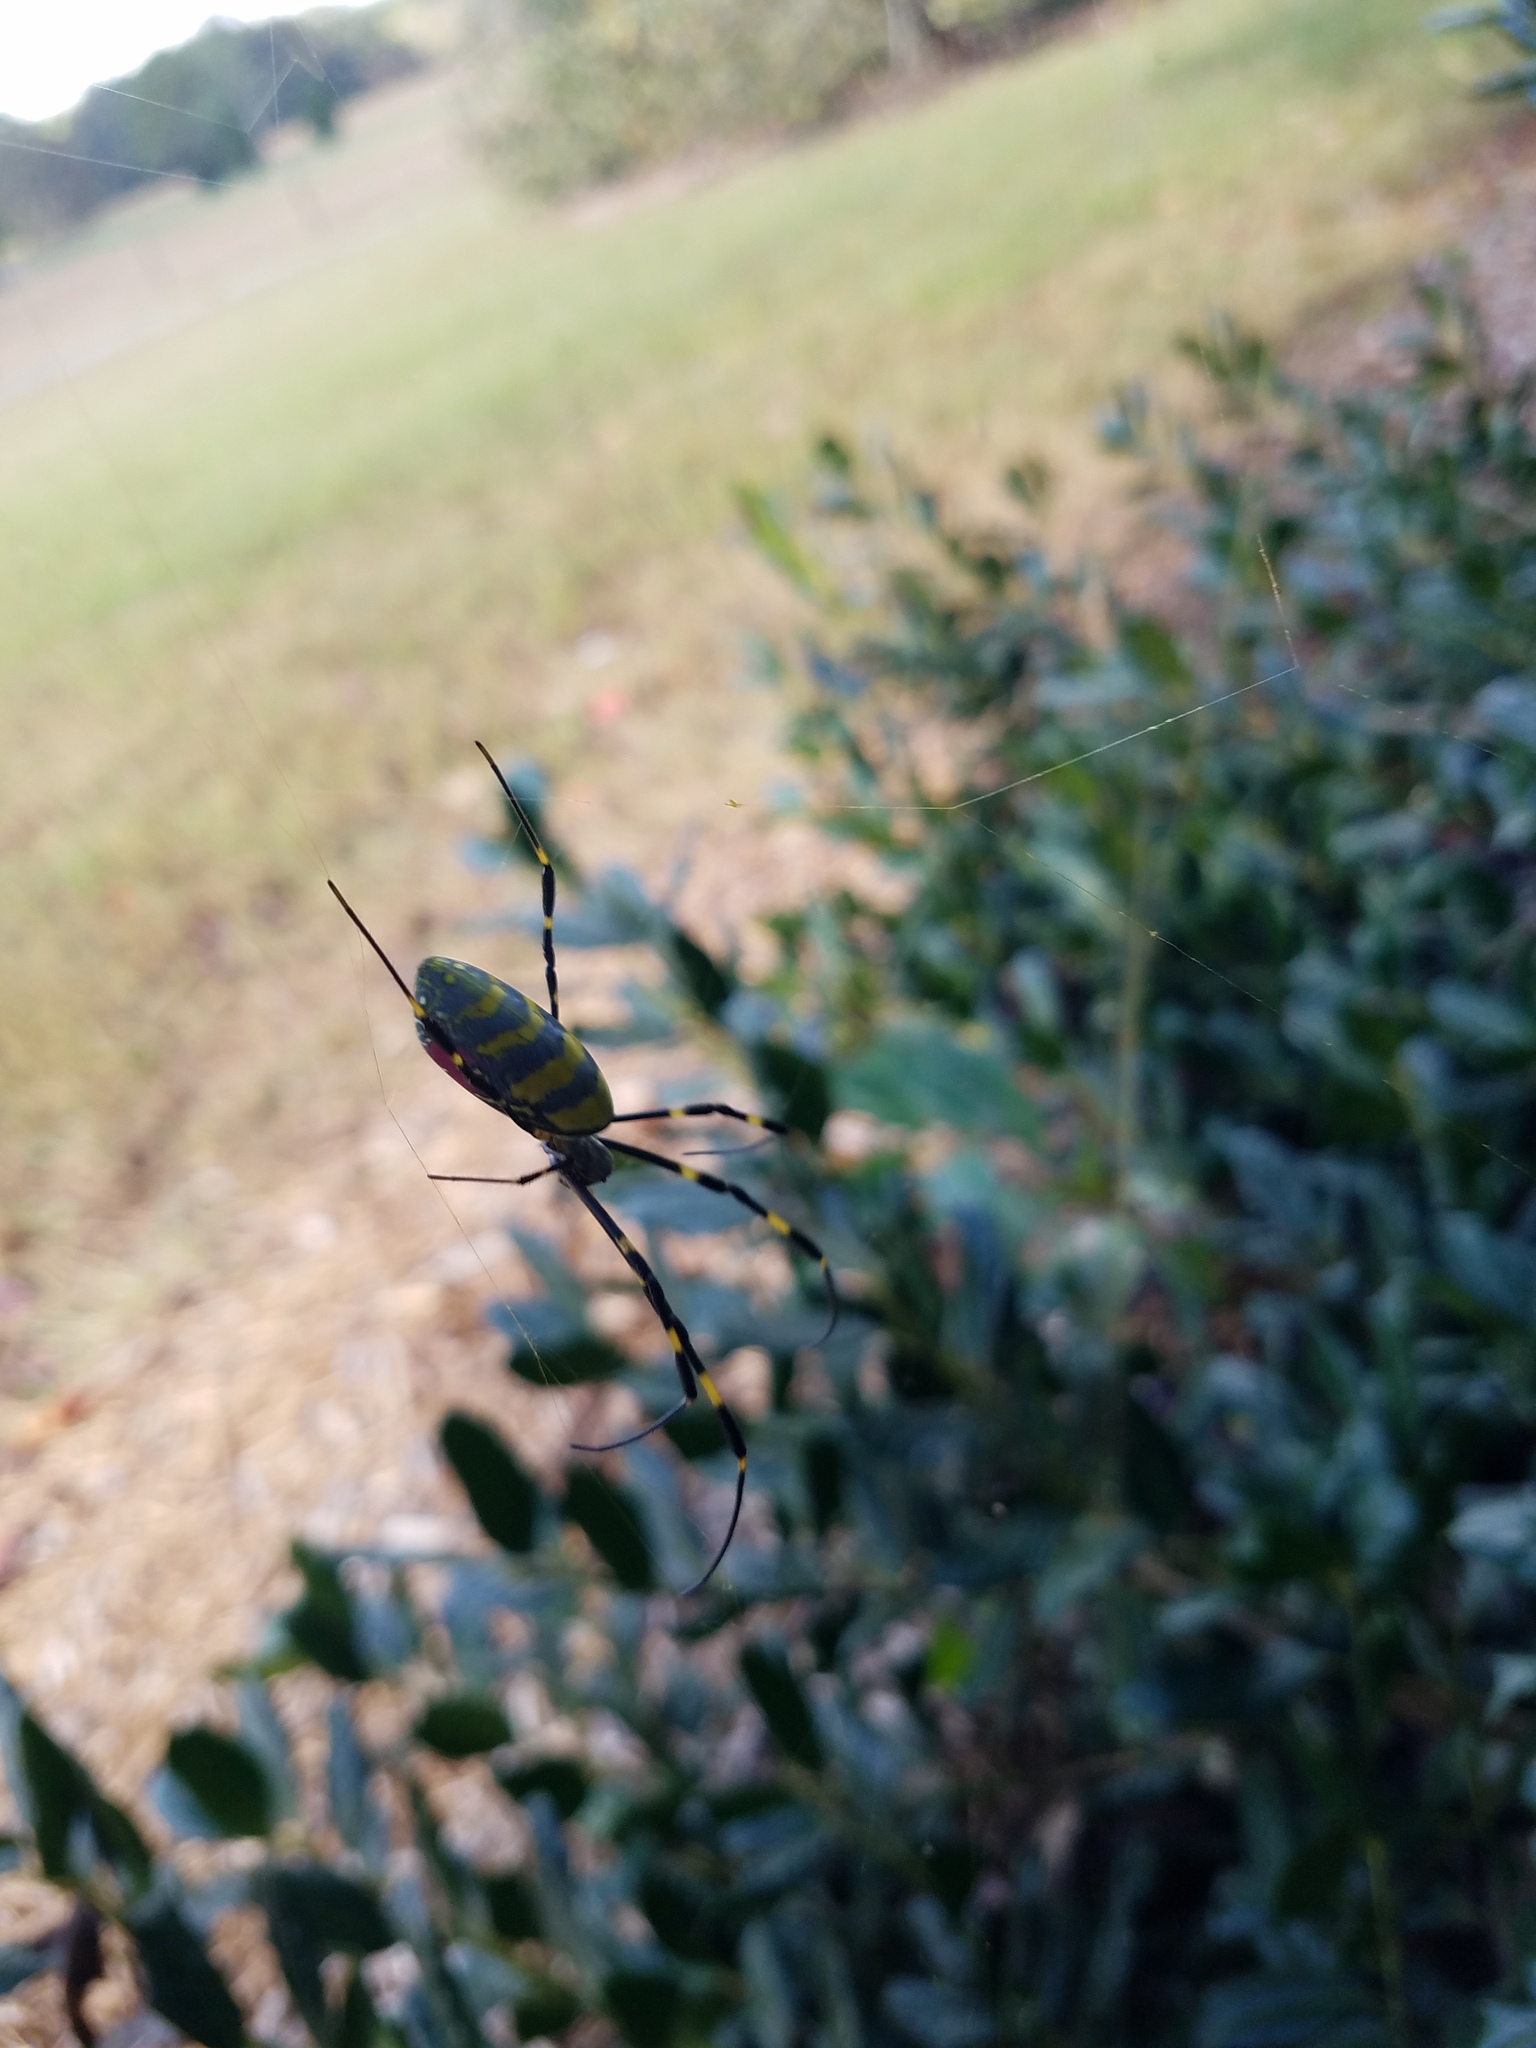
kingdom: Animalia
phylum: Arthropoda
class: Arachnida
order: Araneae
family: Araneidae
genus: Trichonephila
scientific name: Trichonephila clavata
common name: Jorō spider
